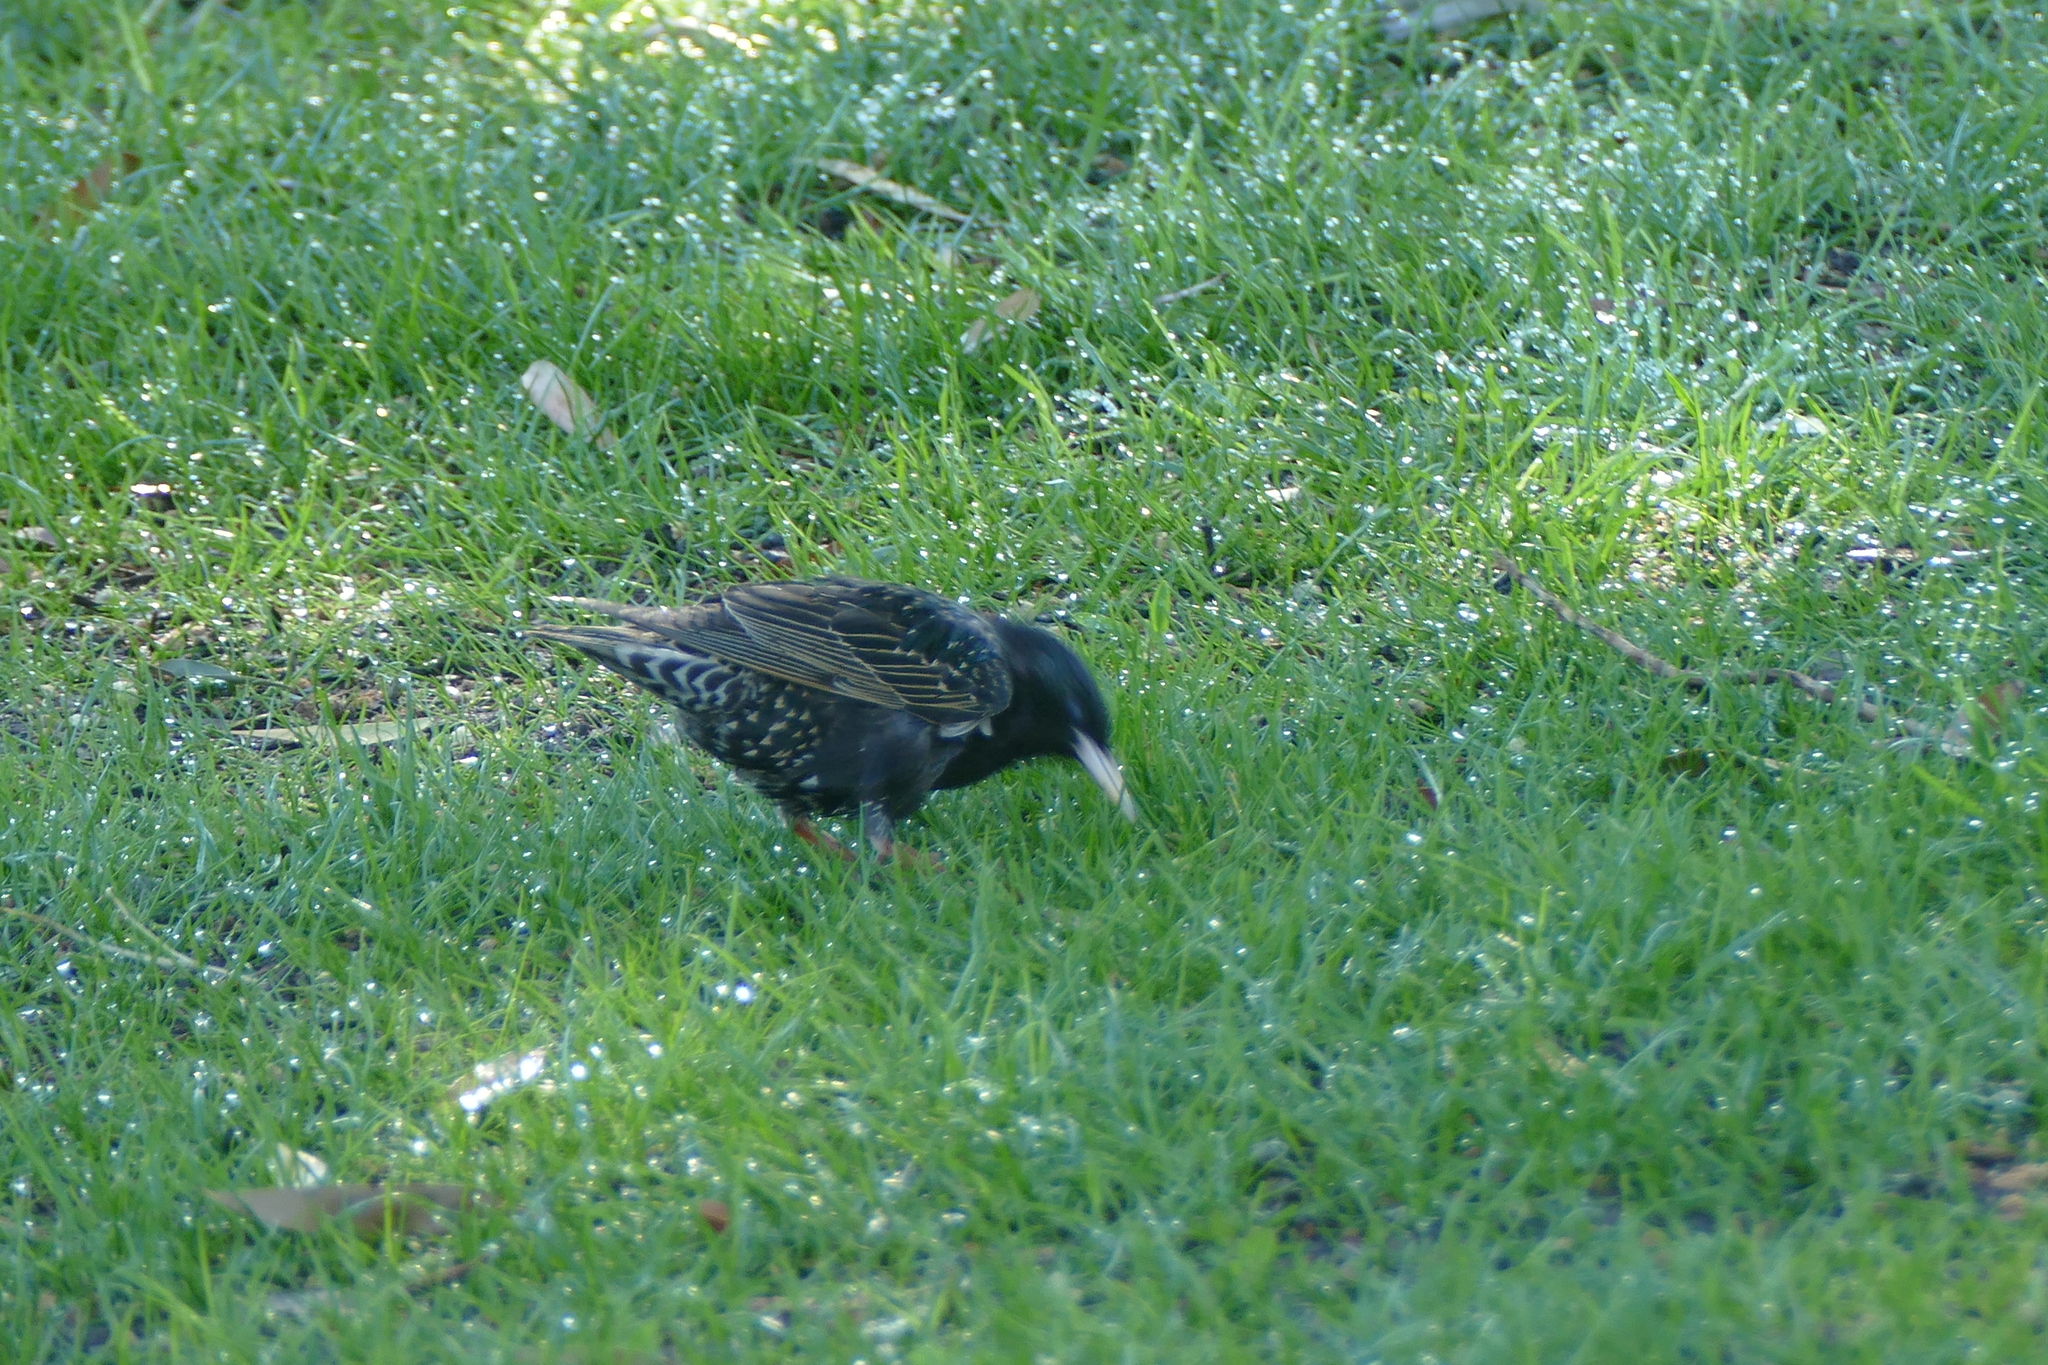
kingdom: Animalia
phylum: Chordata
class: Aves
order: Passeriformes
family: Sturnidae
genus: Sturnus
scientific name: Sturnus vulgaris
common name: Common starling
